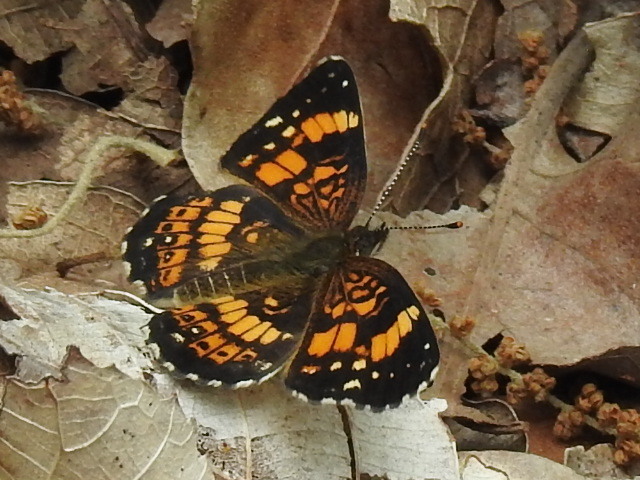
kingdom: Animalia
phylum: Arthropoda
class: Insecta
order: Lepidoptera
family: Nymphalidae
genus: Chlosyne
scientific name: Chlosyne nycteis
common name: Silvery checkerspot
